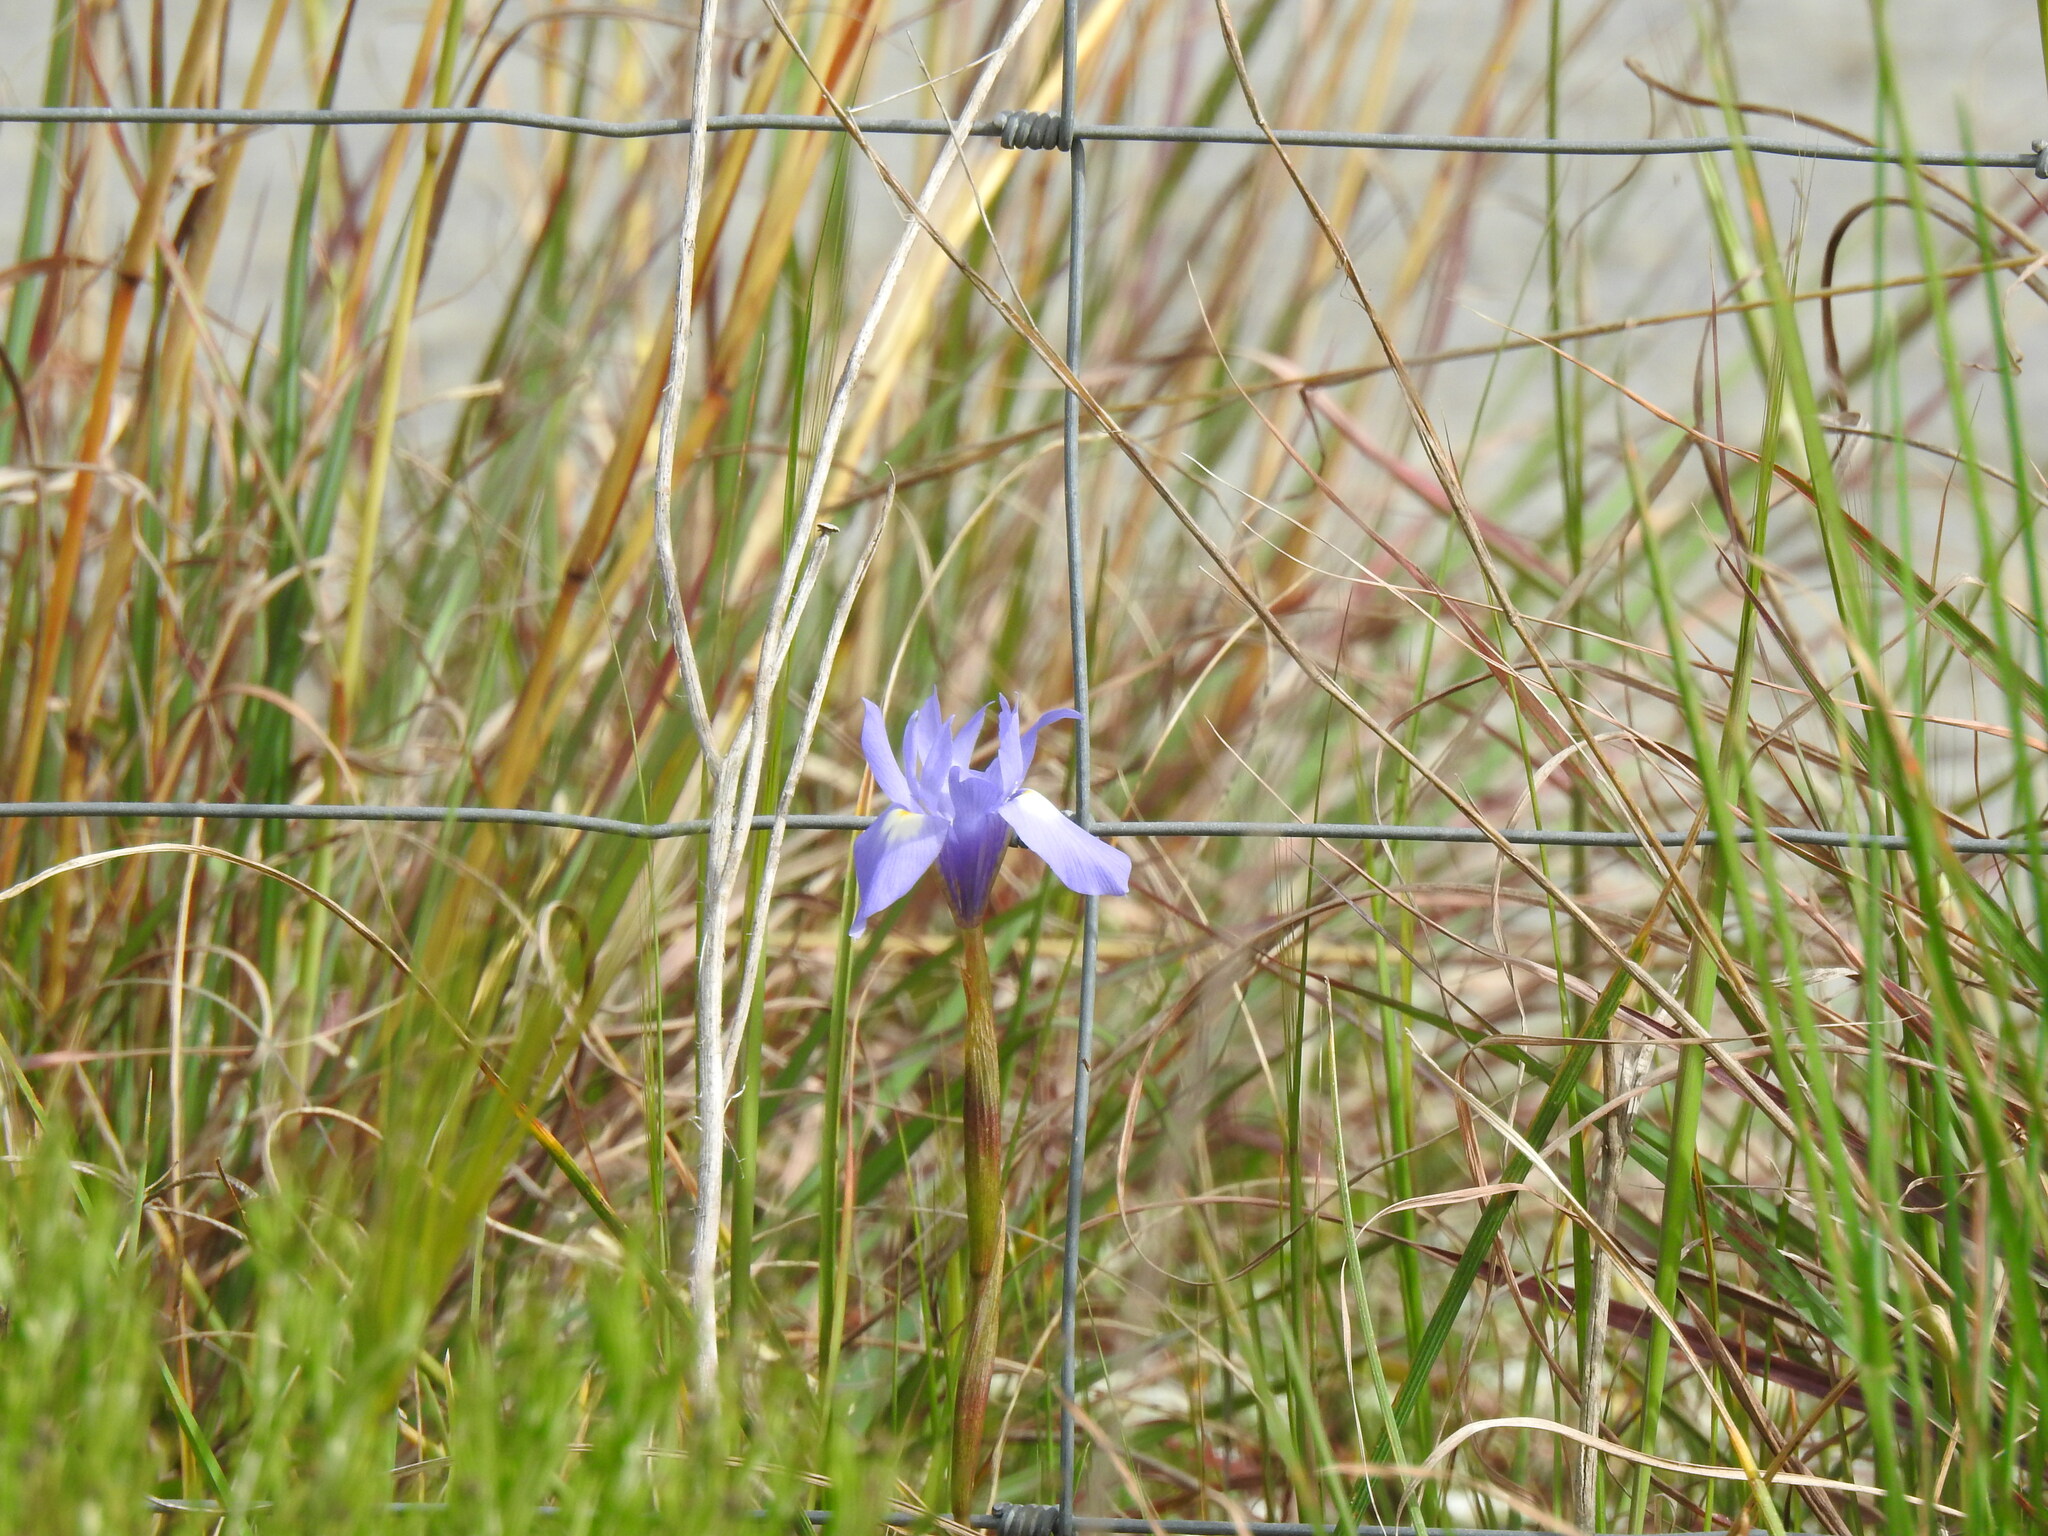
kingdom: Plantae
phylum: Tracheophyta
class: Liliopsida
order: Asparagales
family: Iridaceae
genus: Moraea
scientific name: Moraea sisyrinchium
